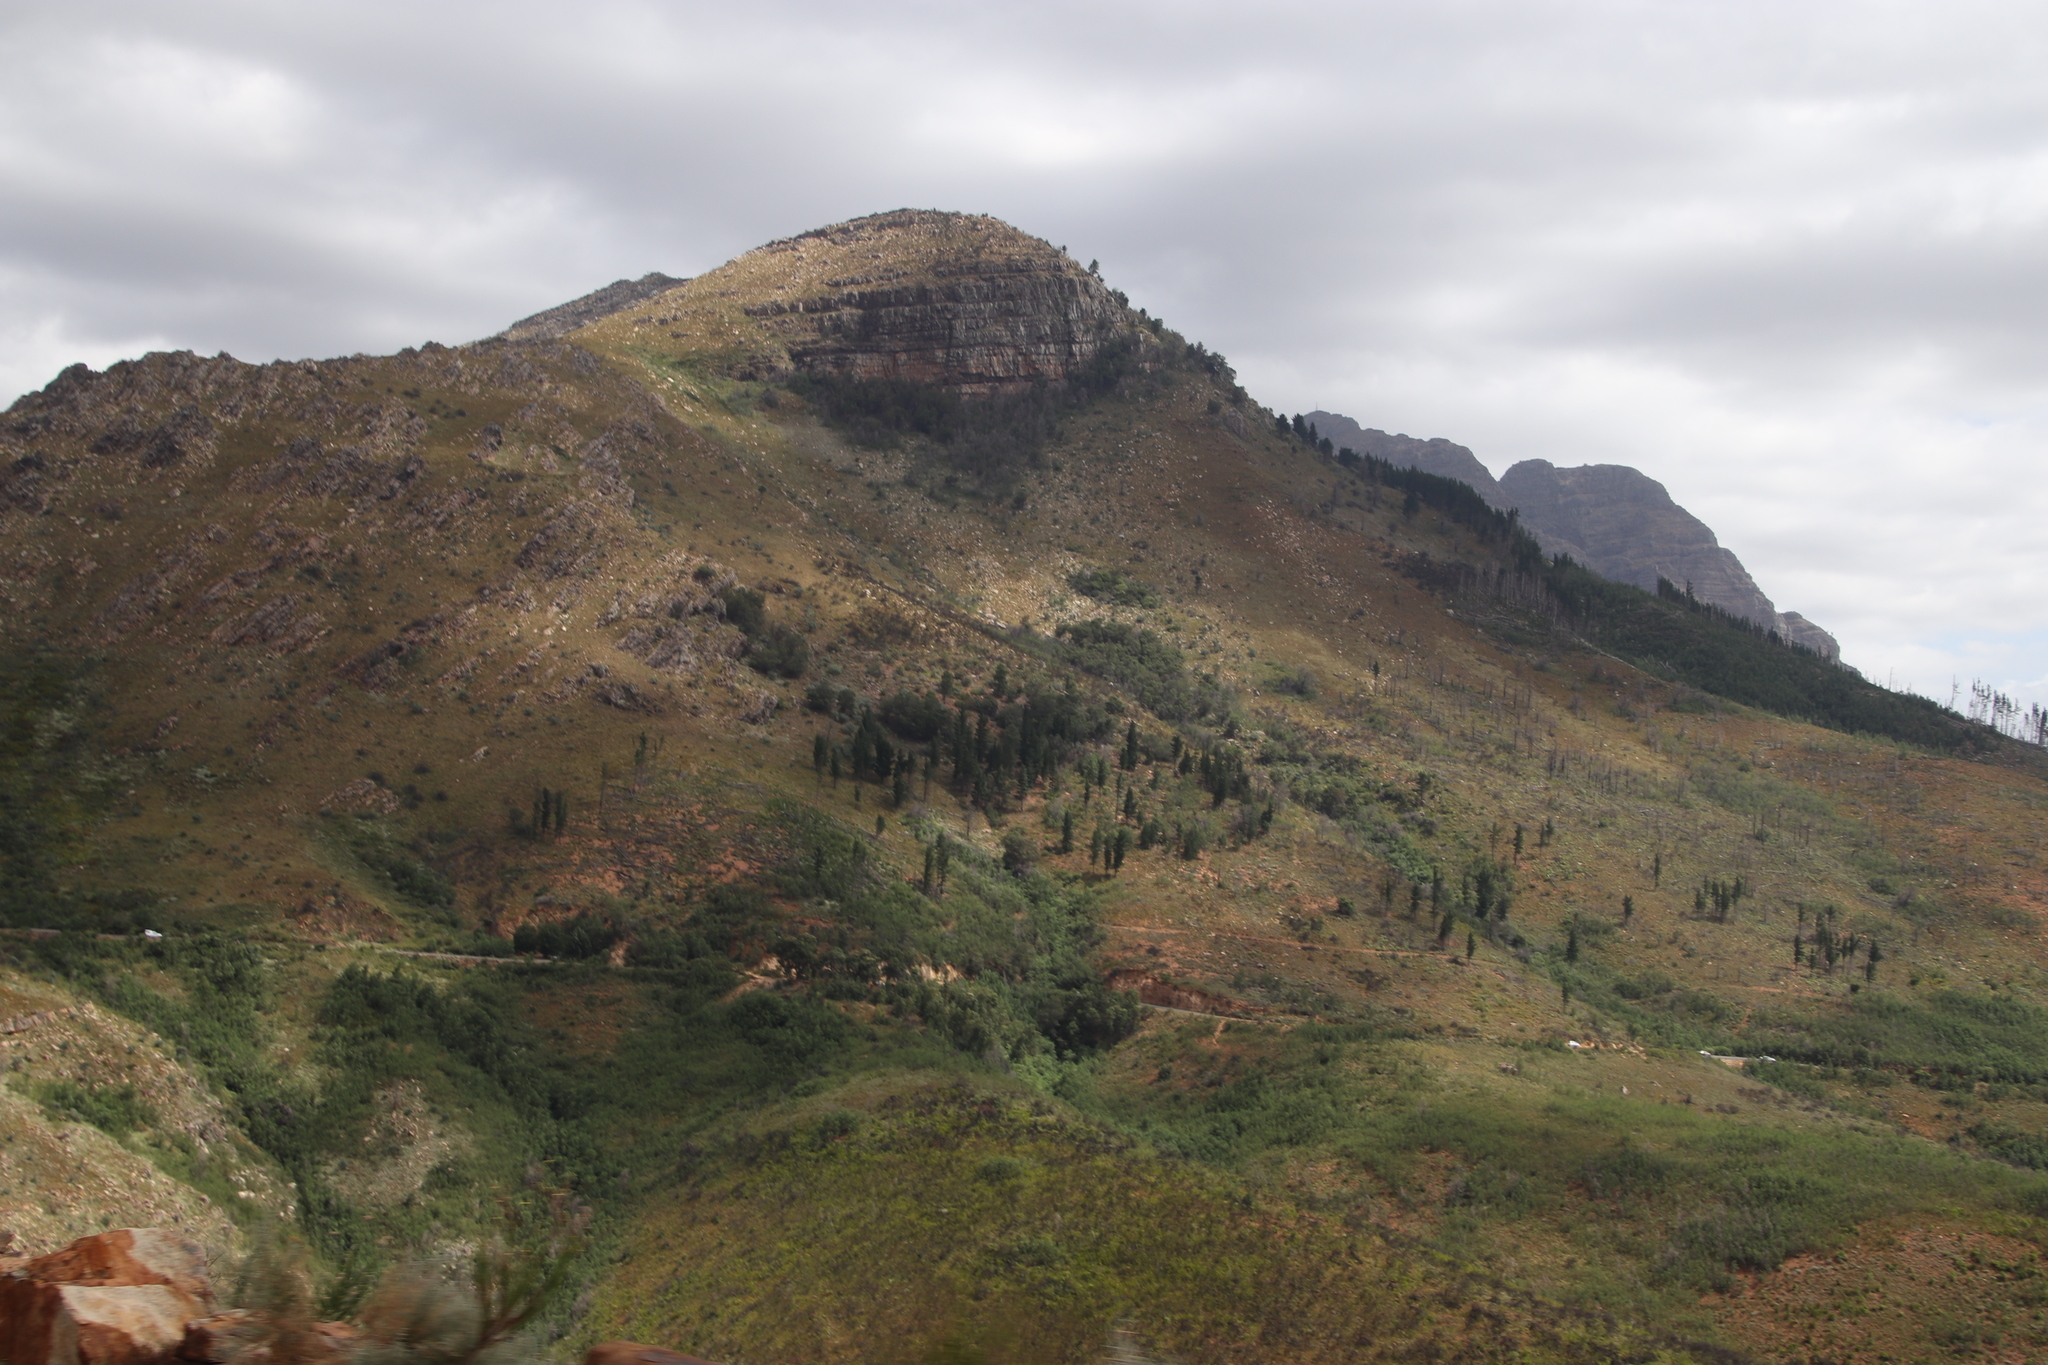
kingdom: Plantae
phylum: Tracheophyta
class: Pinopsida
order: Pinales
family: Pinaceae
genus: Pinus
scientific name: Pinus radiata
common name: Monterey pine
